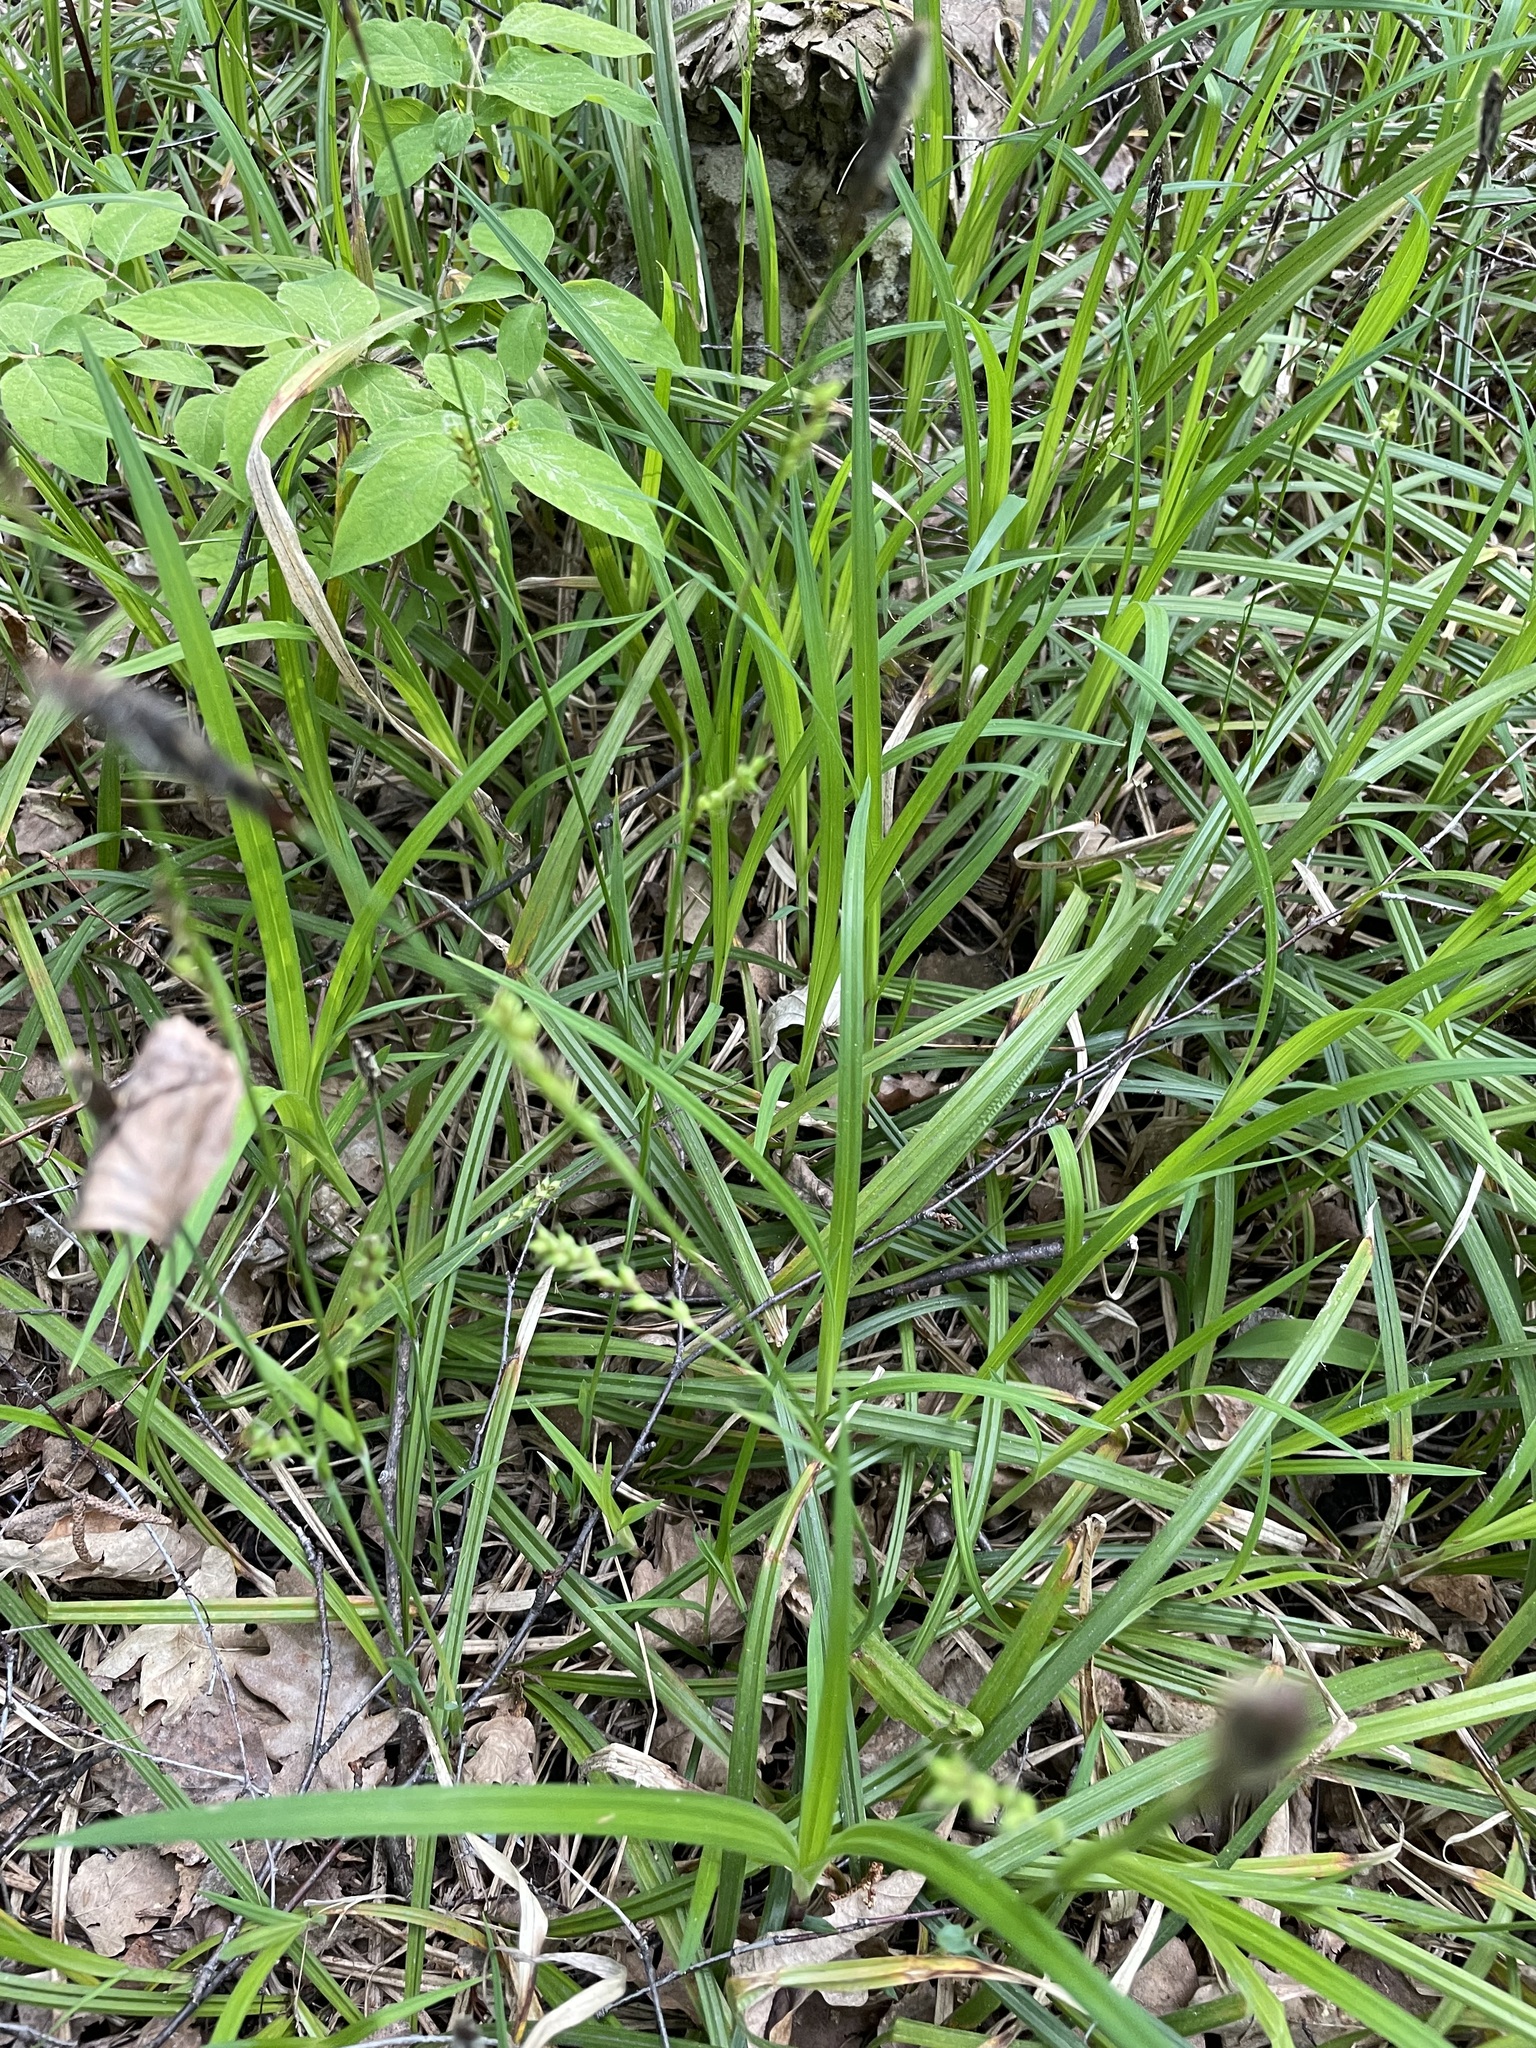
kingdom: Plantae
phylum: Tracheophyta
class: Liliopsida
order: Poales
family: Cyperaceae
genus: Carex
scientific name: Carex pilosa
